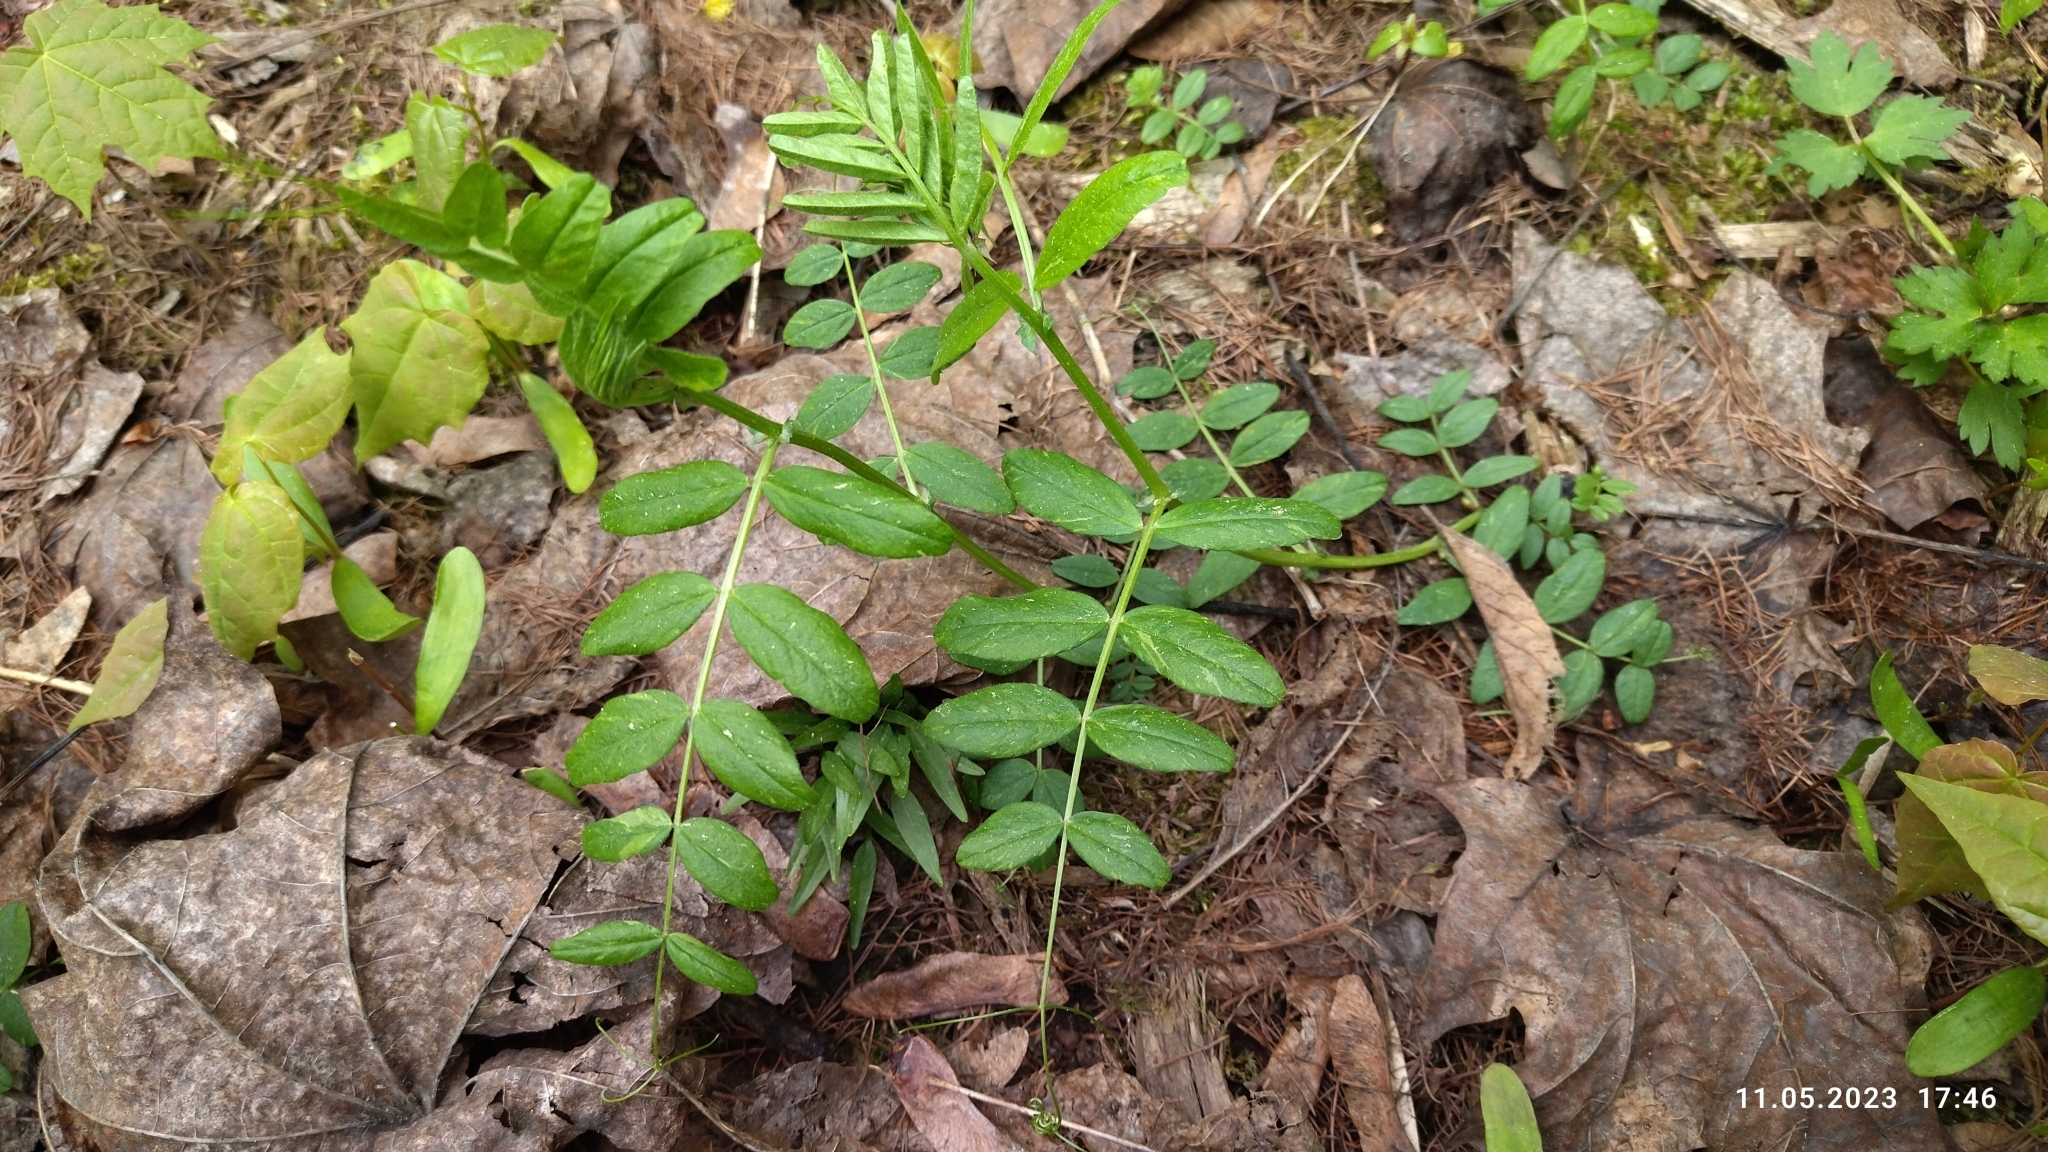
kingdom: Plantae
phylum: Tracheophyta
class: Magnoliopsida
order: Fabales
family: Fabaceae
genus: Vicia
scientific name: Vicia sepium
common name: Bush vetch
